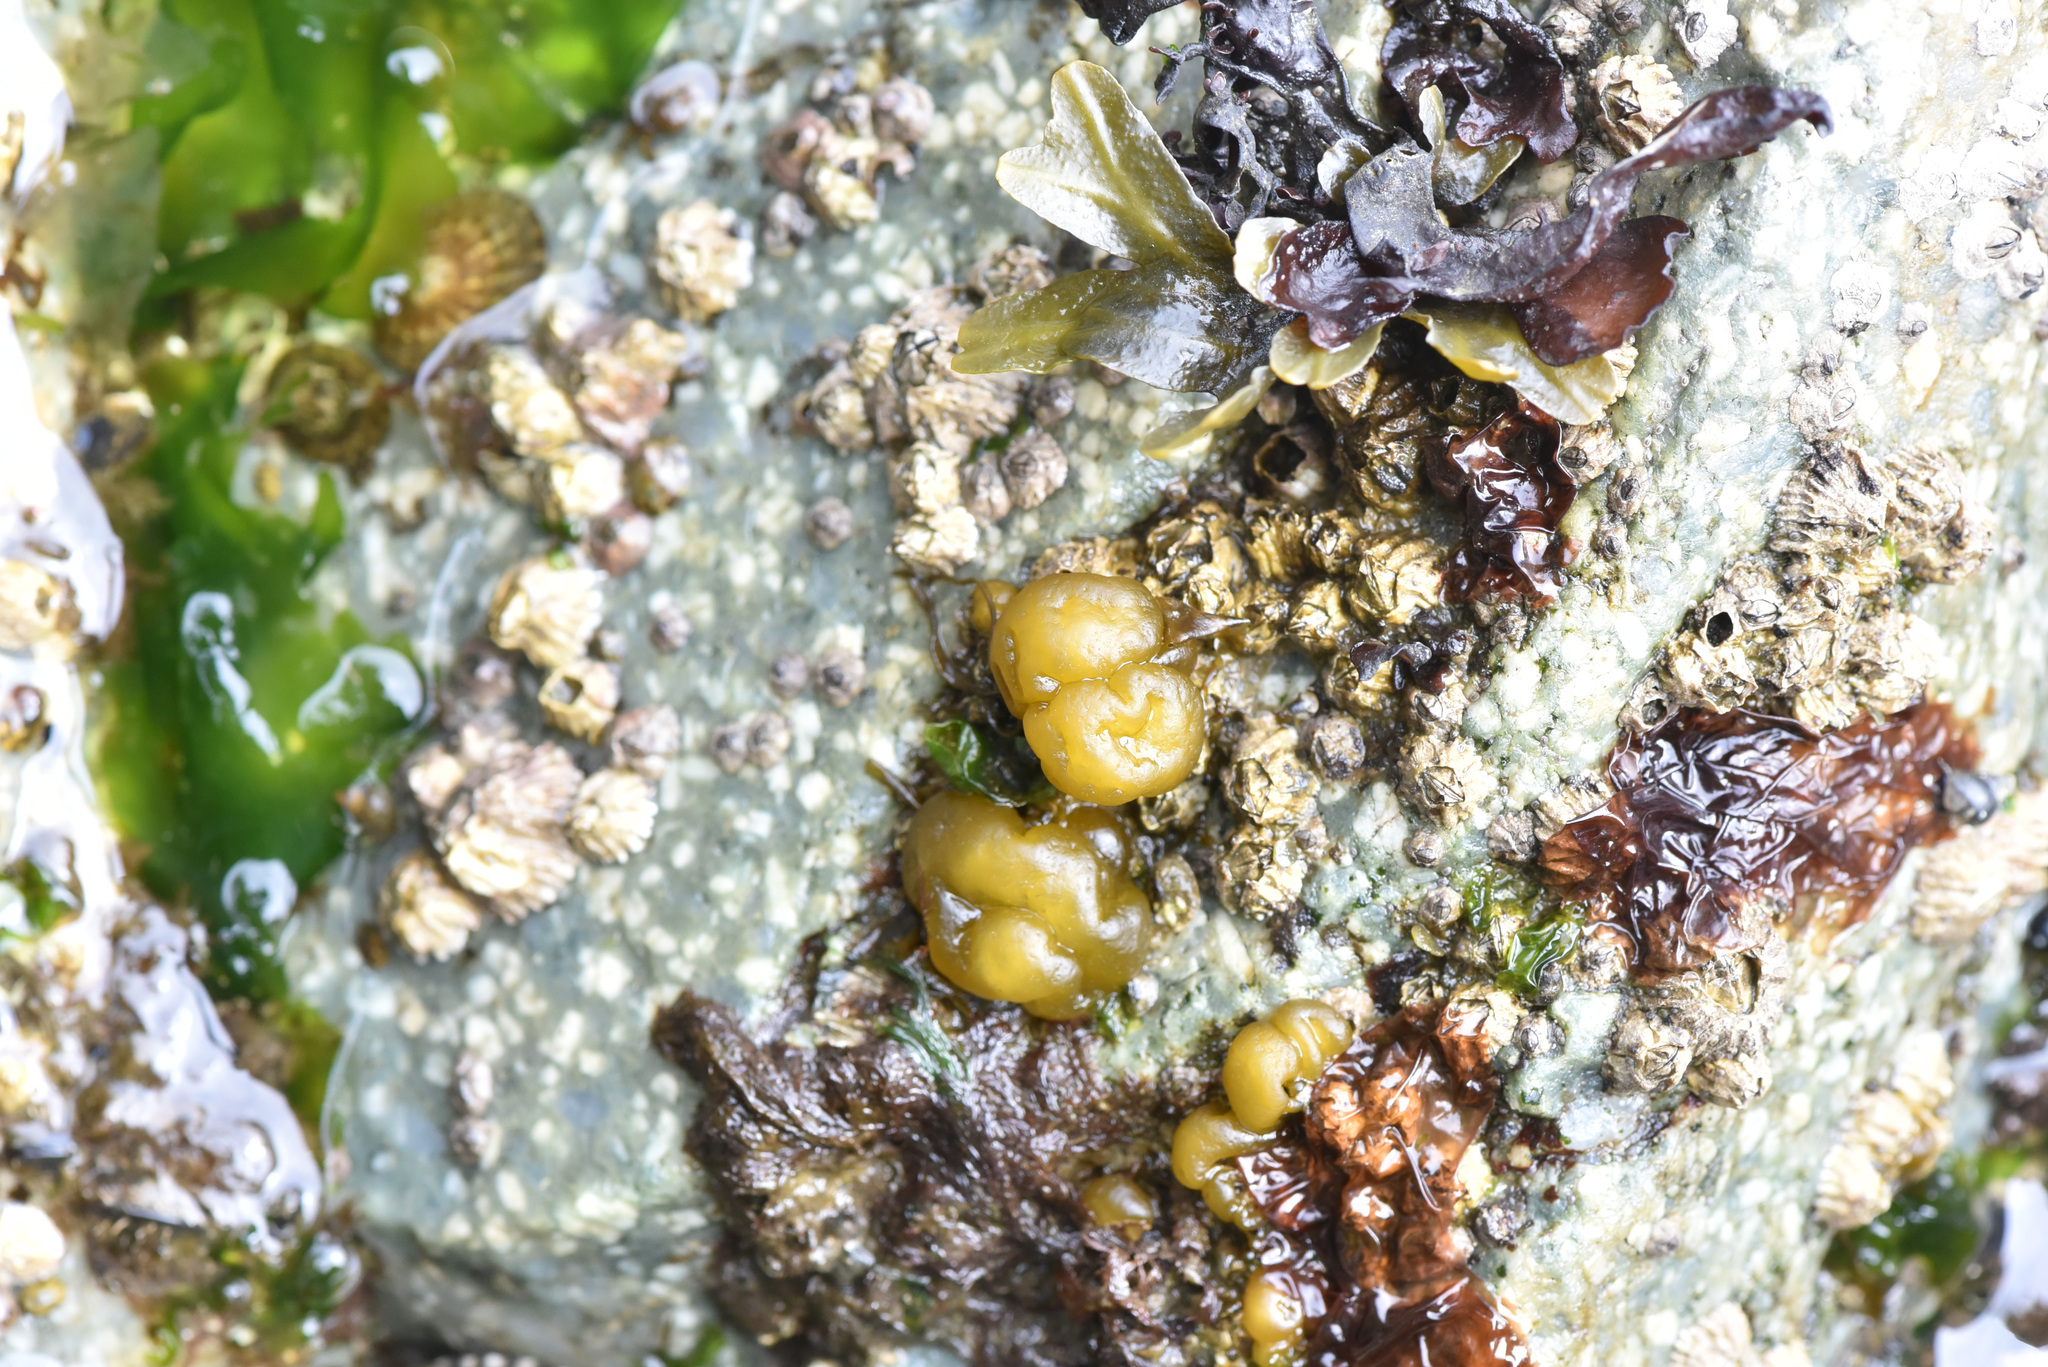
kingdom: Chromista
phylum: Ochrophyta
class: Phaeophyceae
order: Ectocarpales
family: Chordariaceae
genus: Leathesia
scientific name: Leathesia marina
